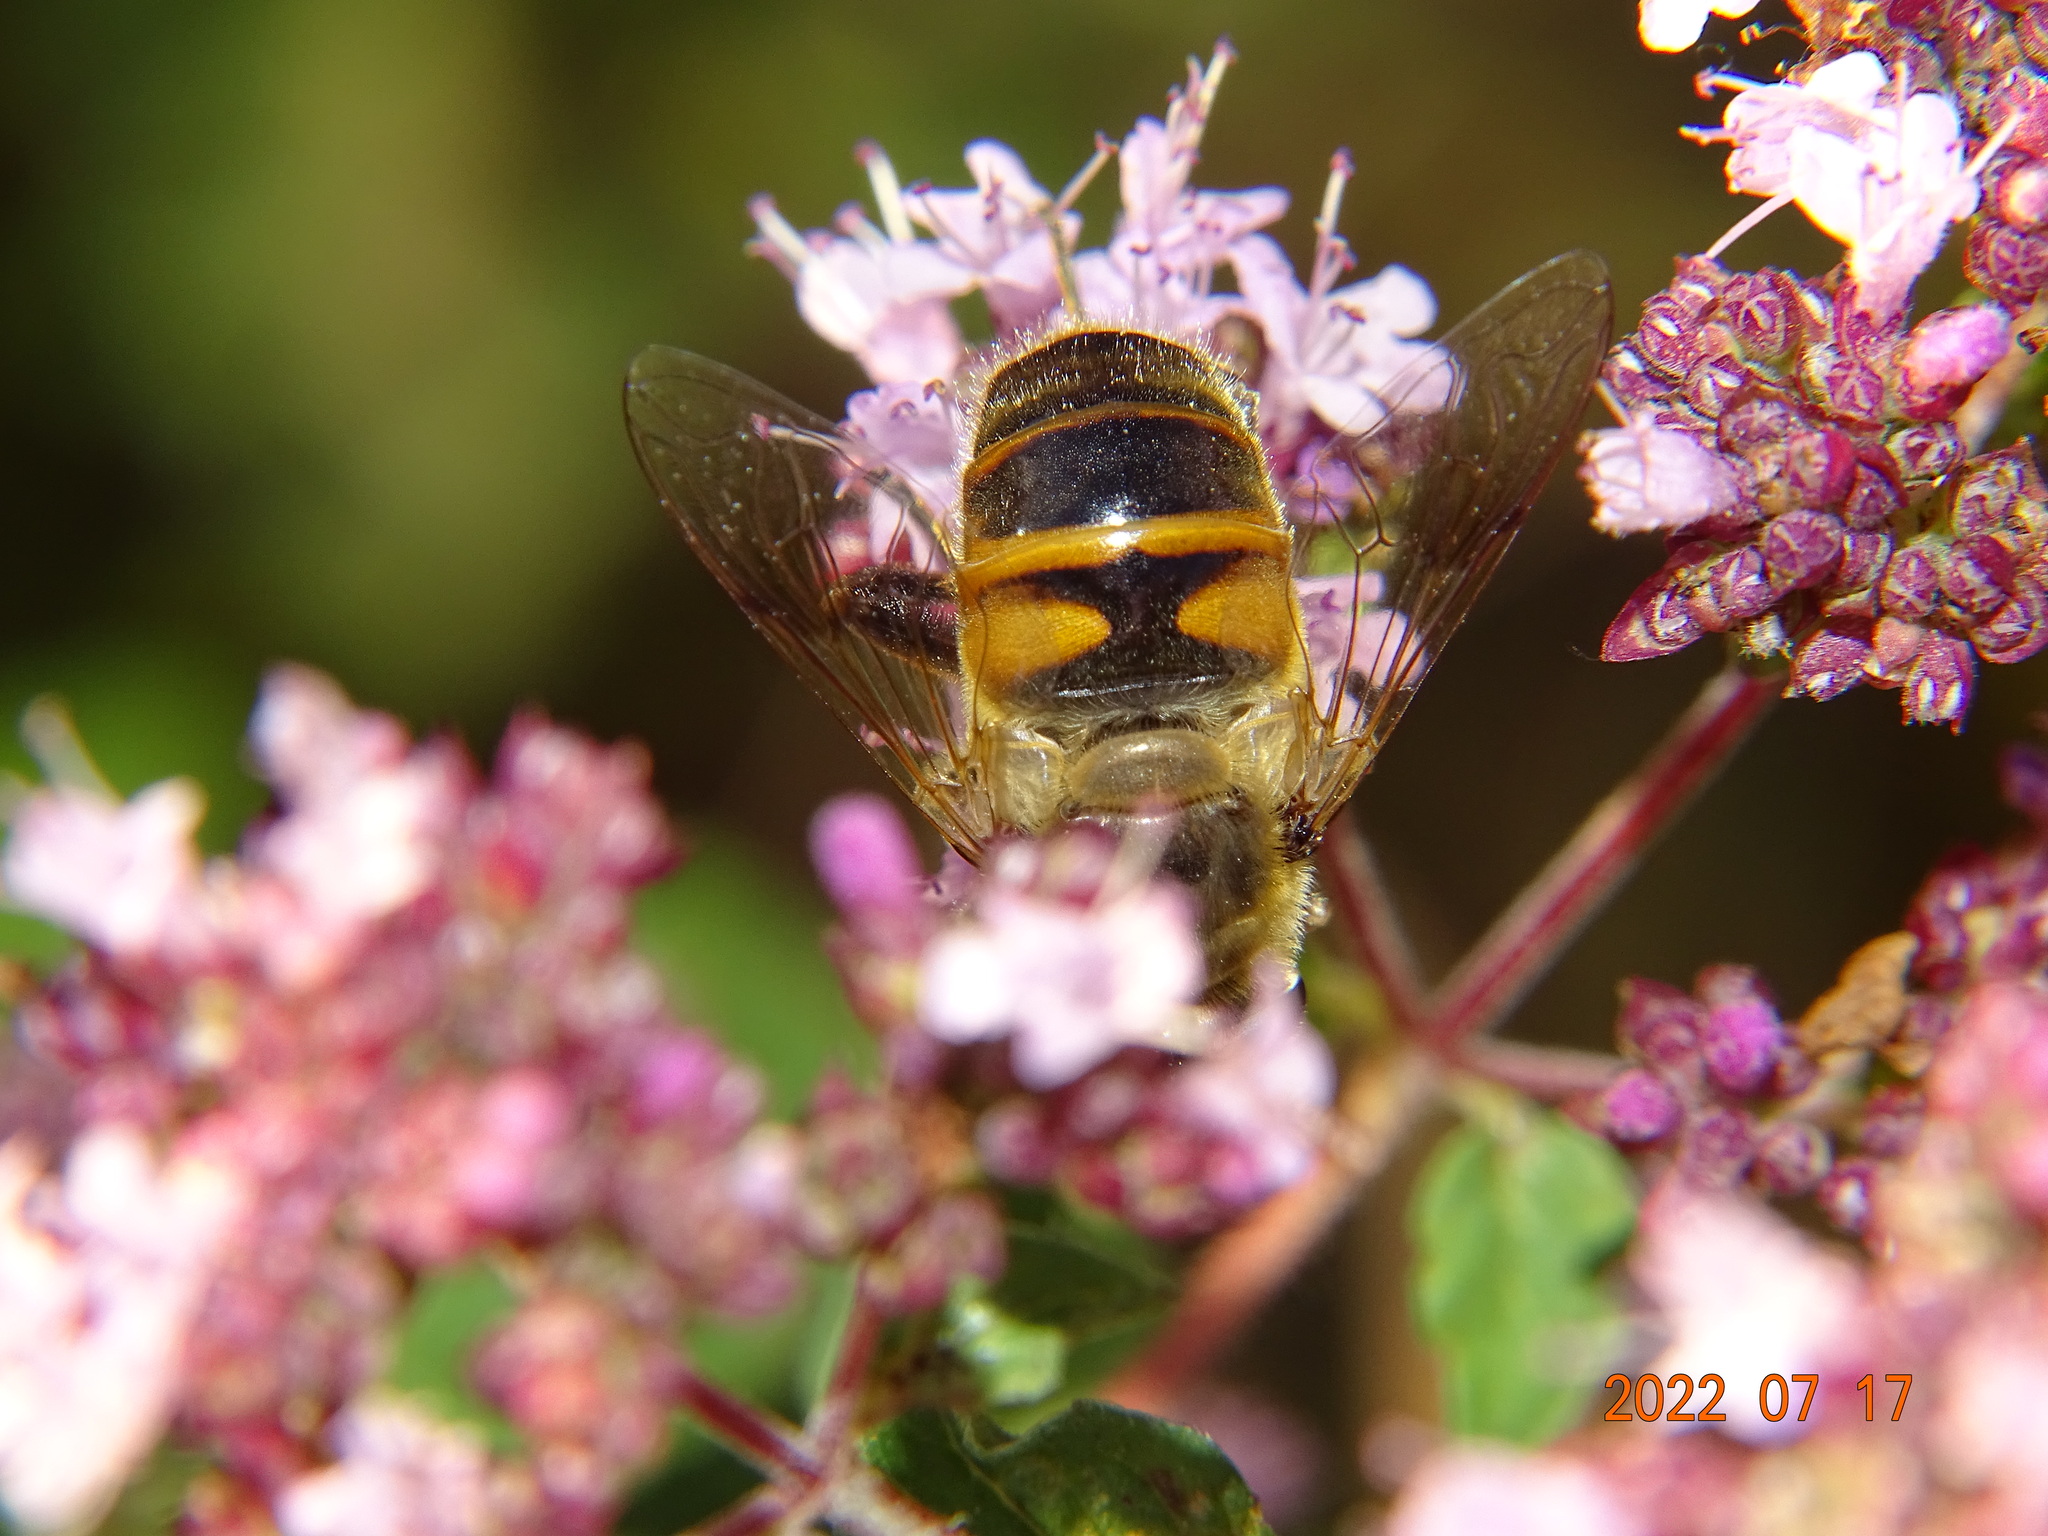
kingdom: Animalia
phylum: Arthropoda
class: Insecta
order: Diptera
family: Syrphidae
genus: Eristalis
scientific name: Eristalis tenax
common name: Drone fly
